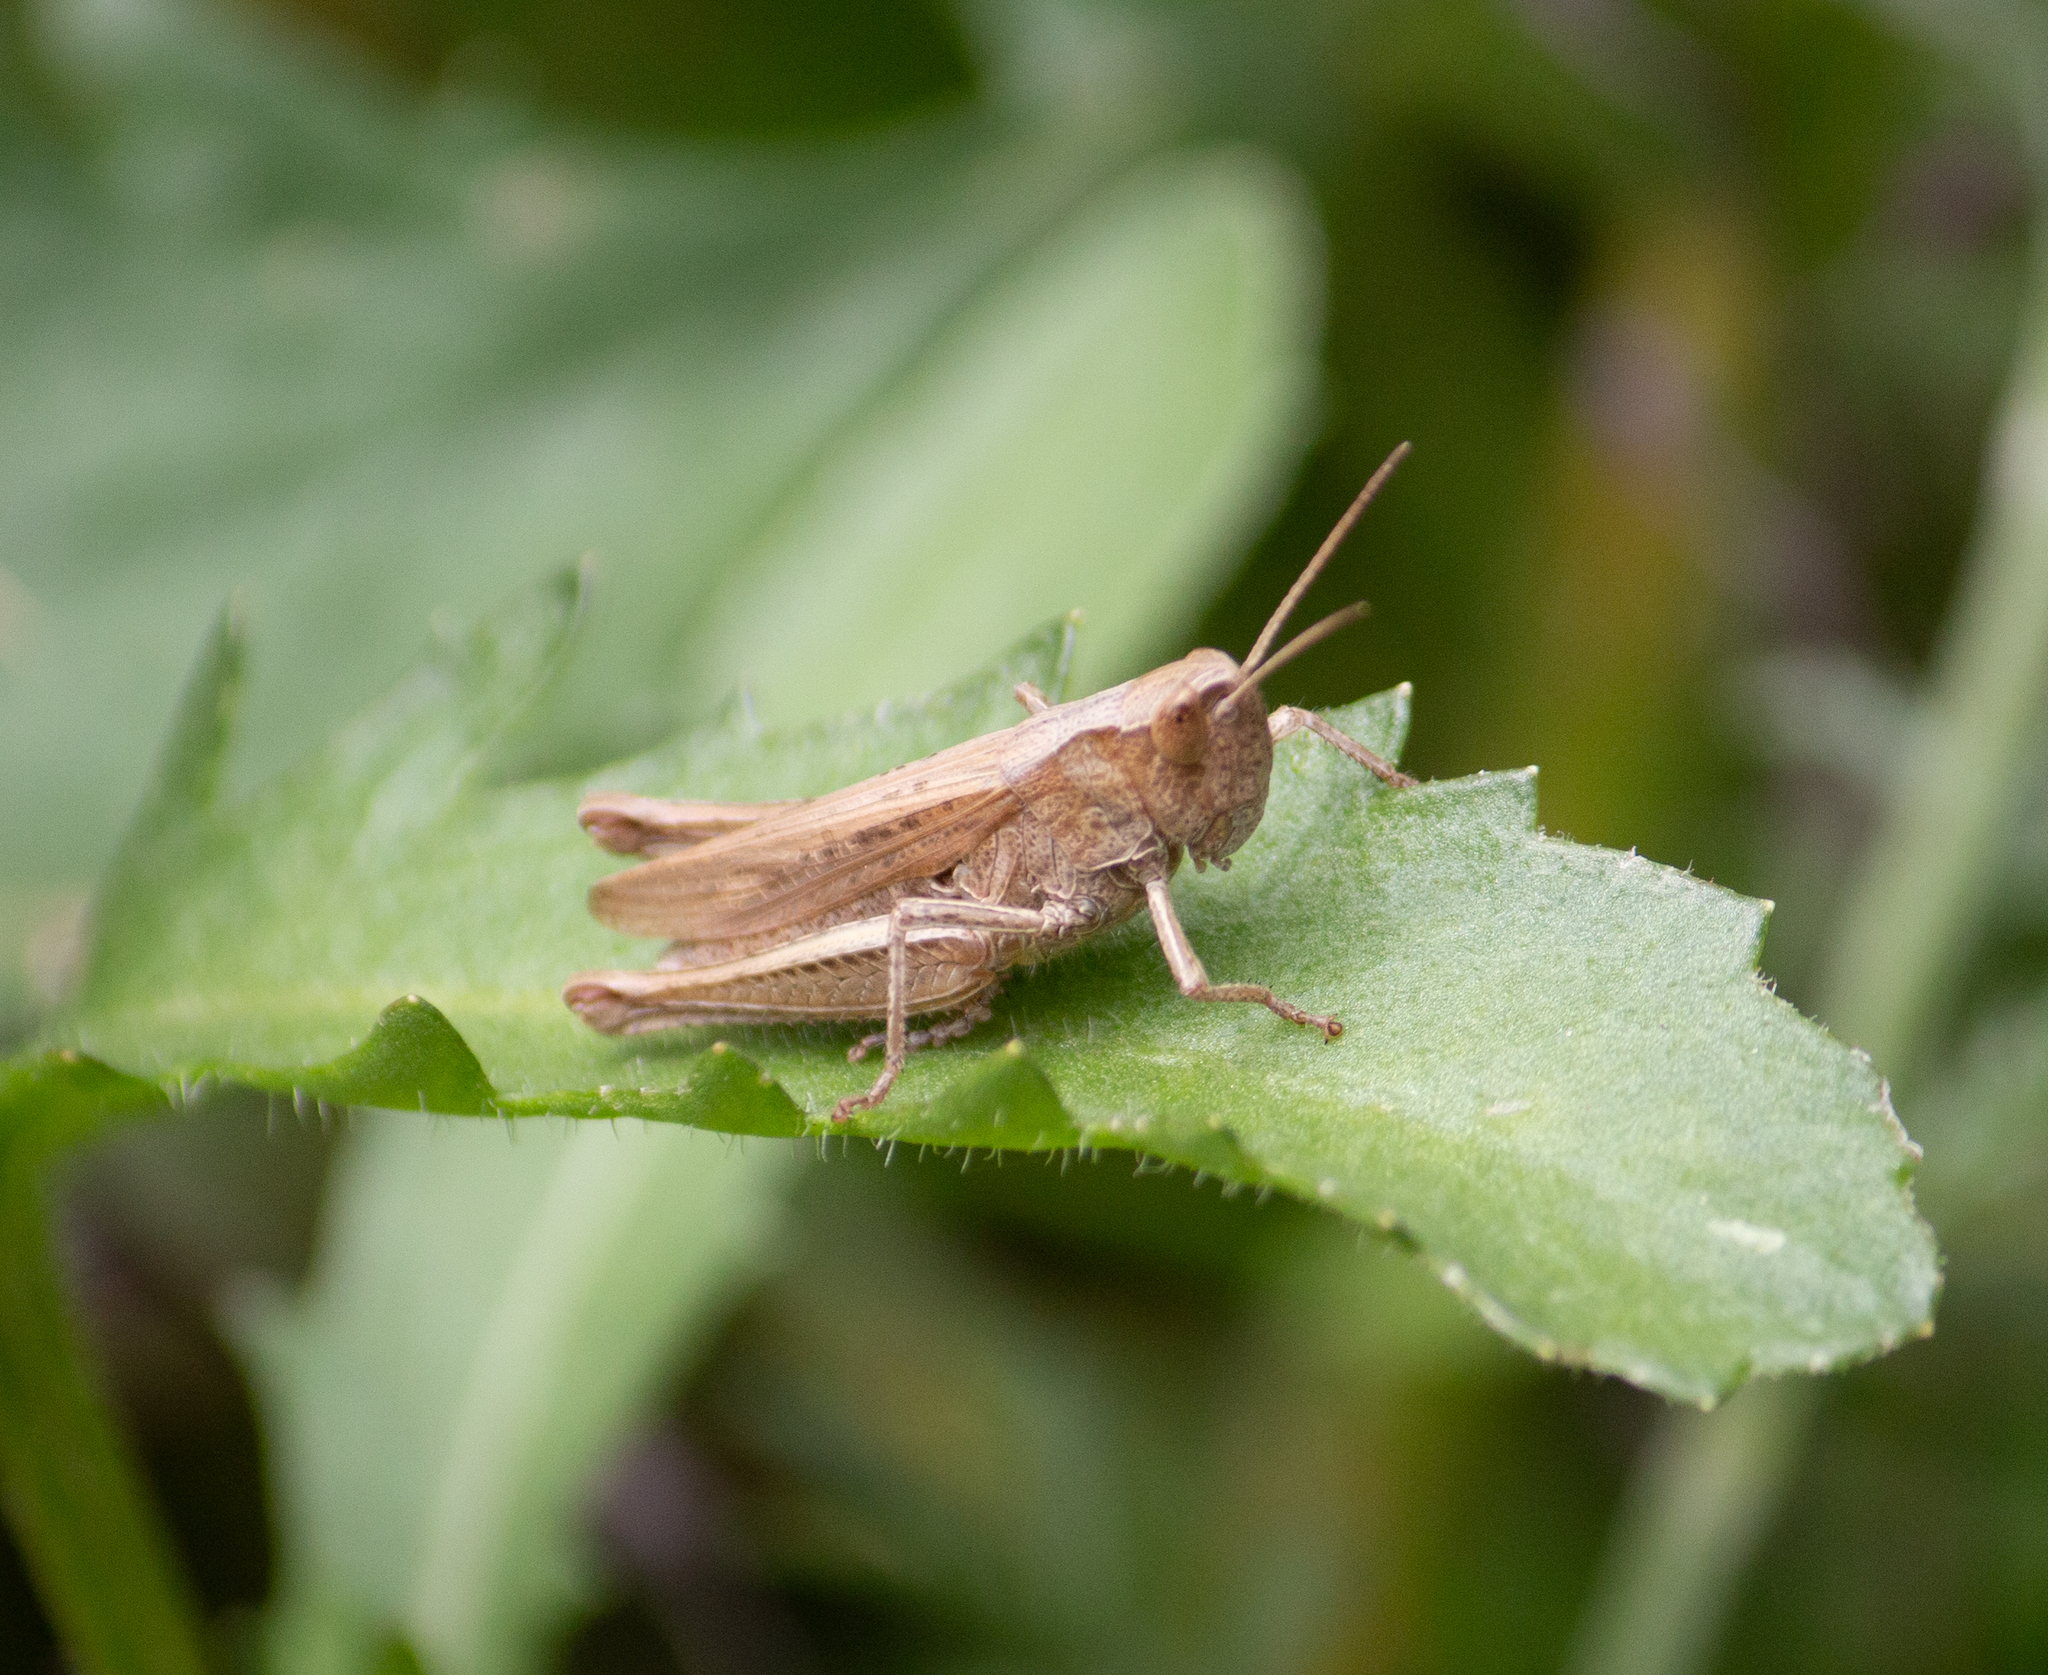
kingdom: Animalia
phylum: Arthropoda
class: Insecta
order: Orthoptera
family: Acrididae
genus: Chorthippus
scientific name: Chorthippus dorsatus
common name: Steppe grasshopper
